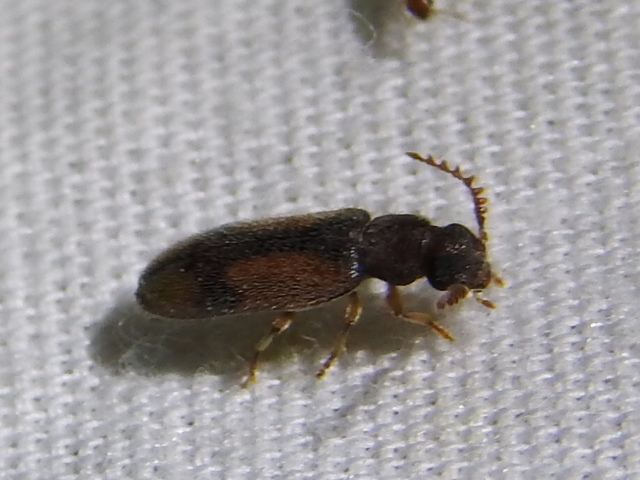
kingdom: Animalia
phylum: Arthropoda
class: Insecta
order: Coleoptera
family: Oedemeridae
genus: Polypria
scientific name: Polypria
